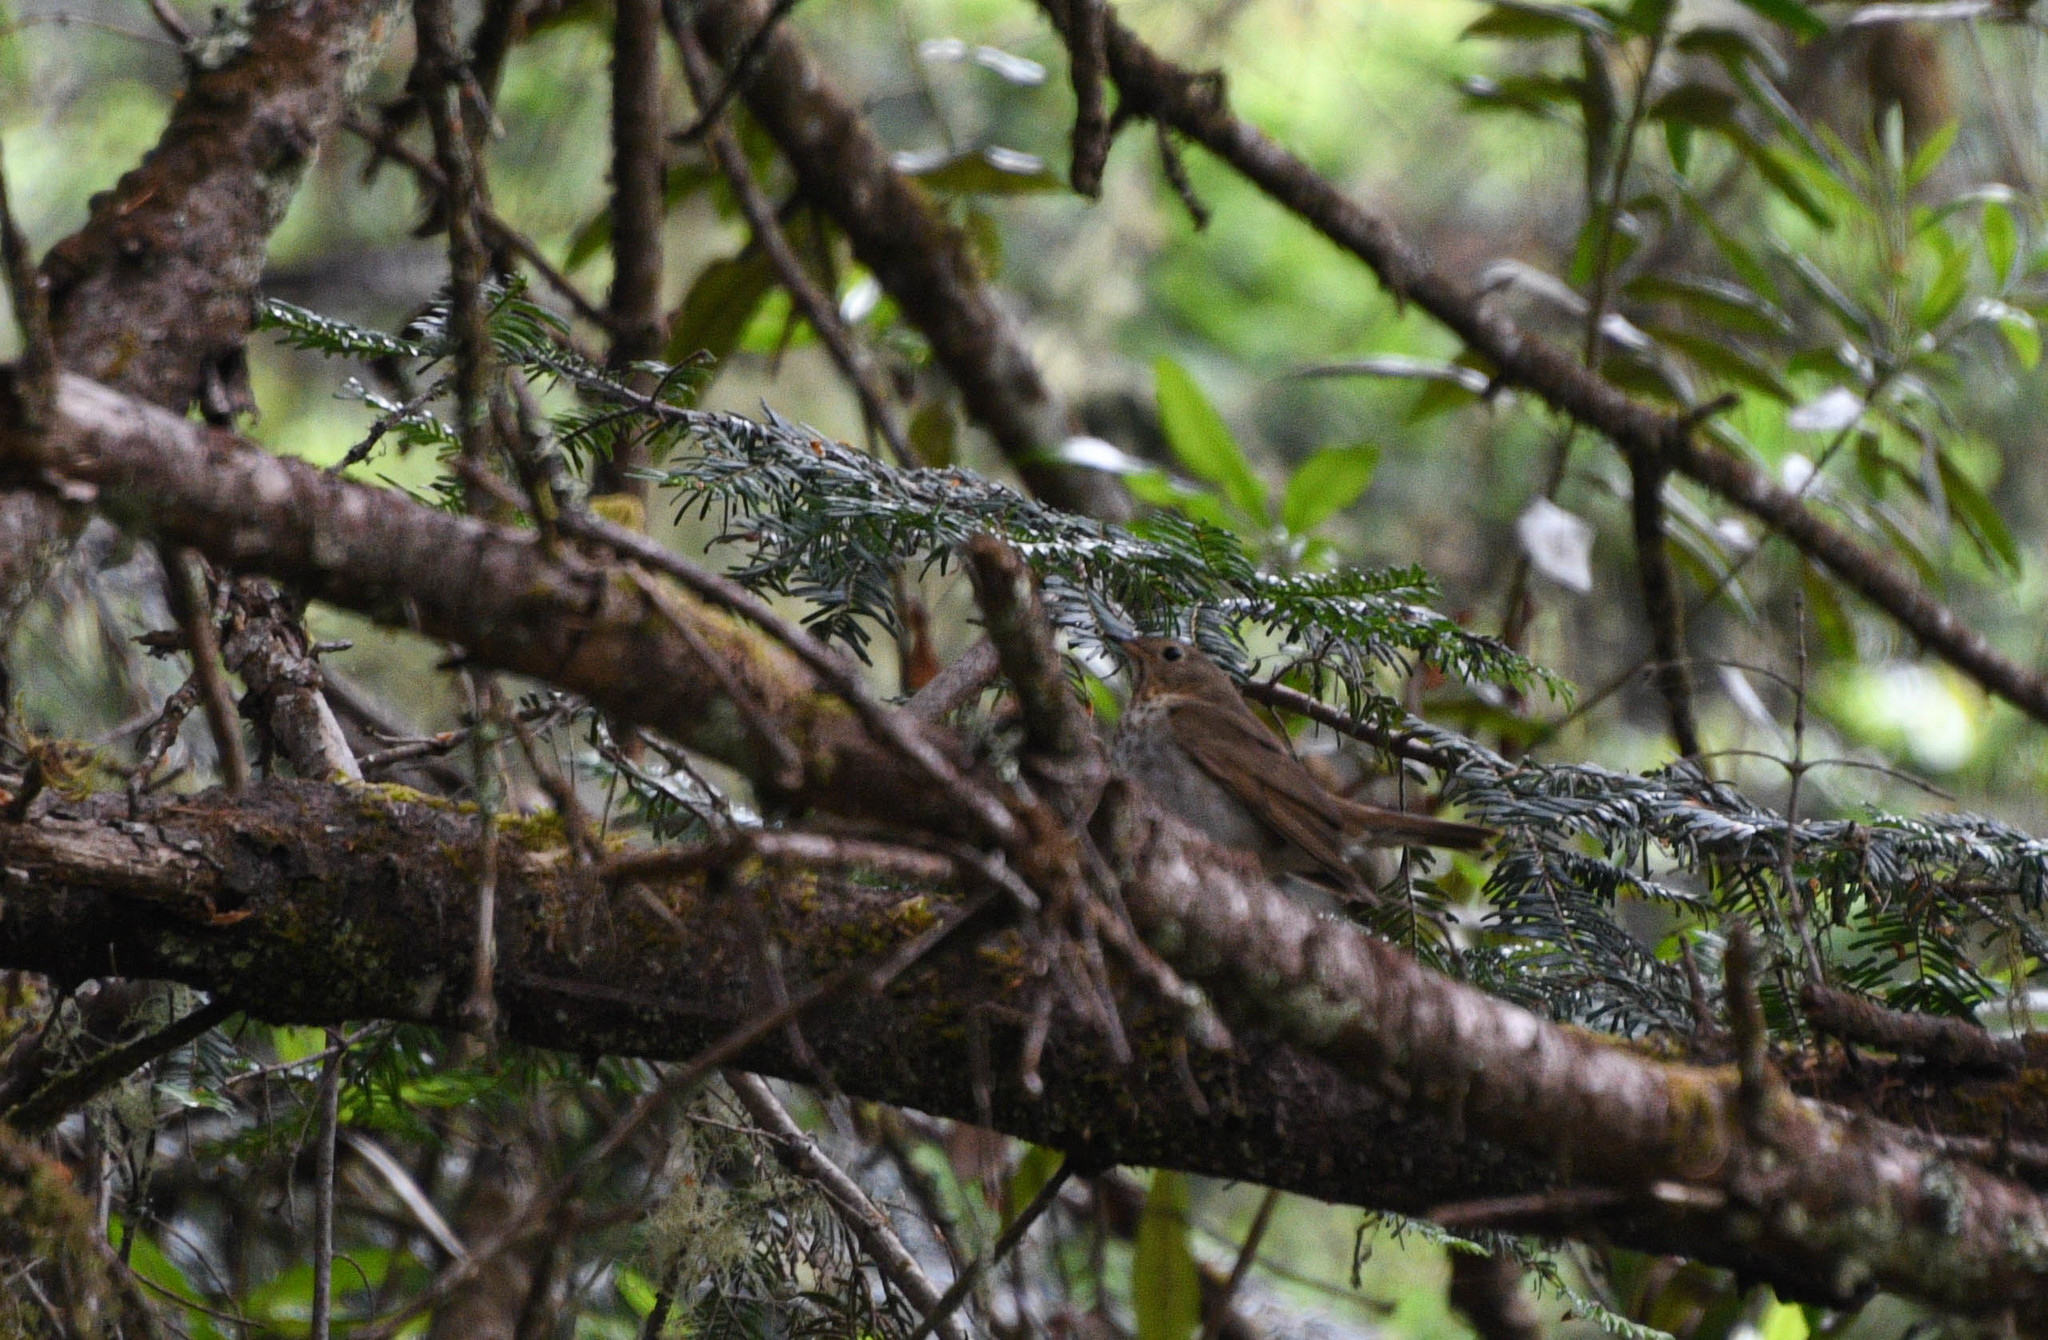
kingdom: Animalia
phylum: Chordata
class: Aves
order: Passeriformes
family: Turdidae
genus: Catharus
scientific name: Catharus ustulatus
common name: Swainson's thrush
